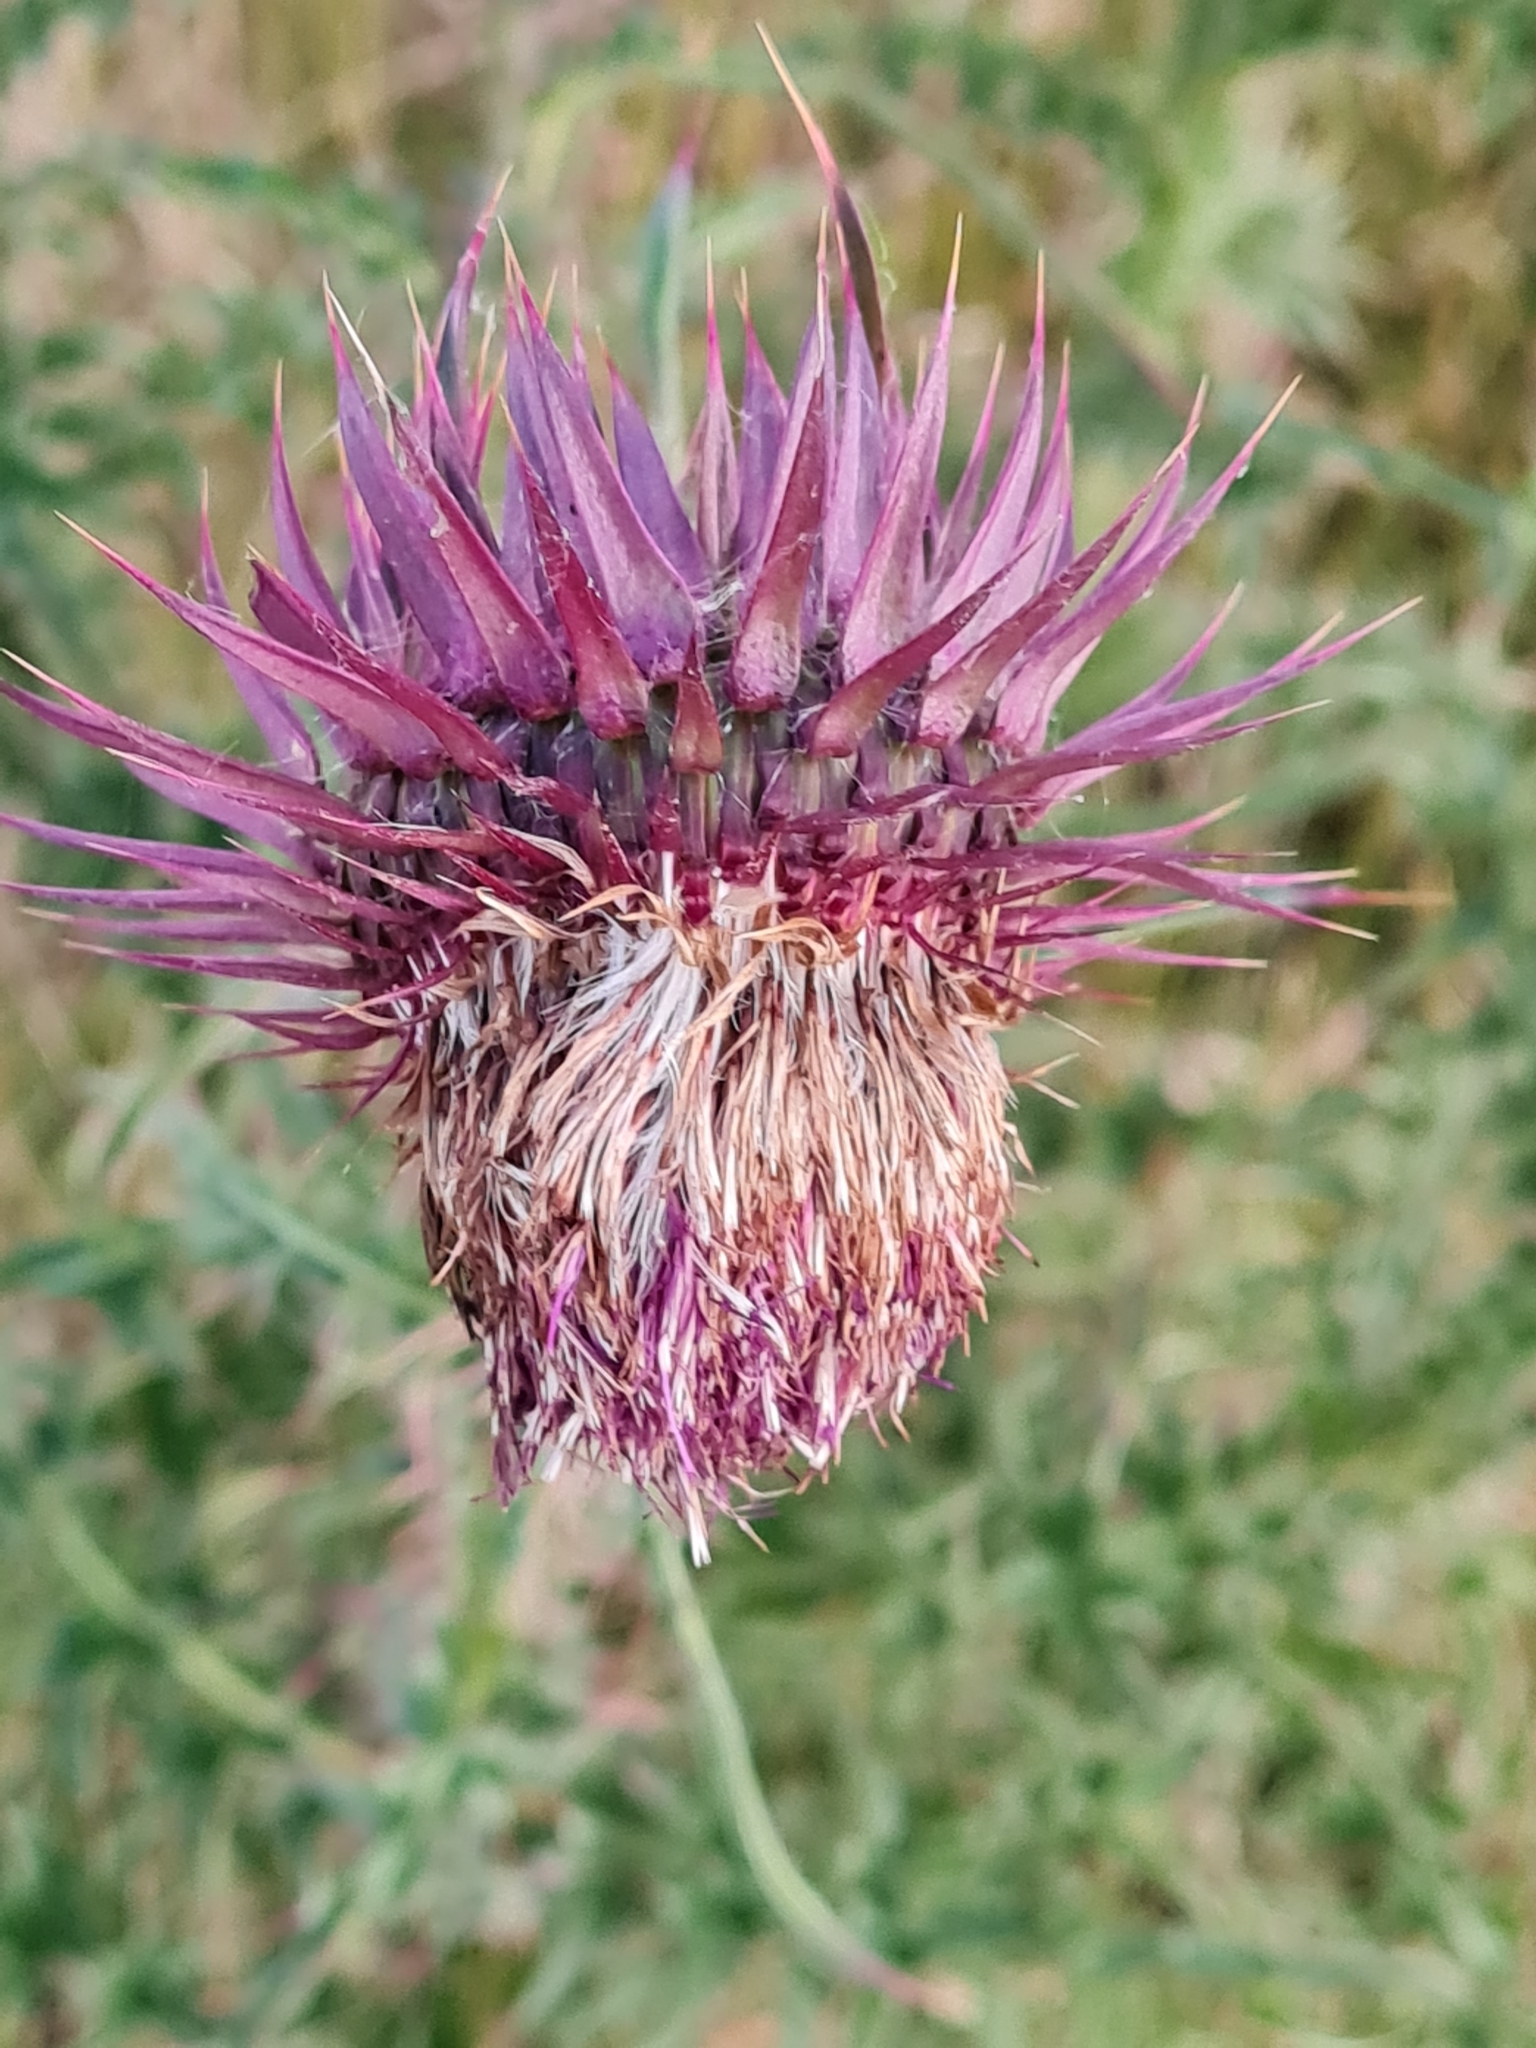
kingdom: Plantae
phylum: Tracheophyta
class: Magnoliopsida
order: Asterales
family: Asteraceae
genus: Carduus
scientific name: Carduus nutans
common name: Musk thistle
